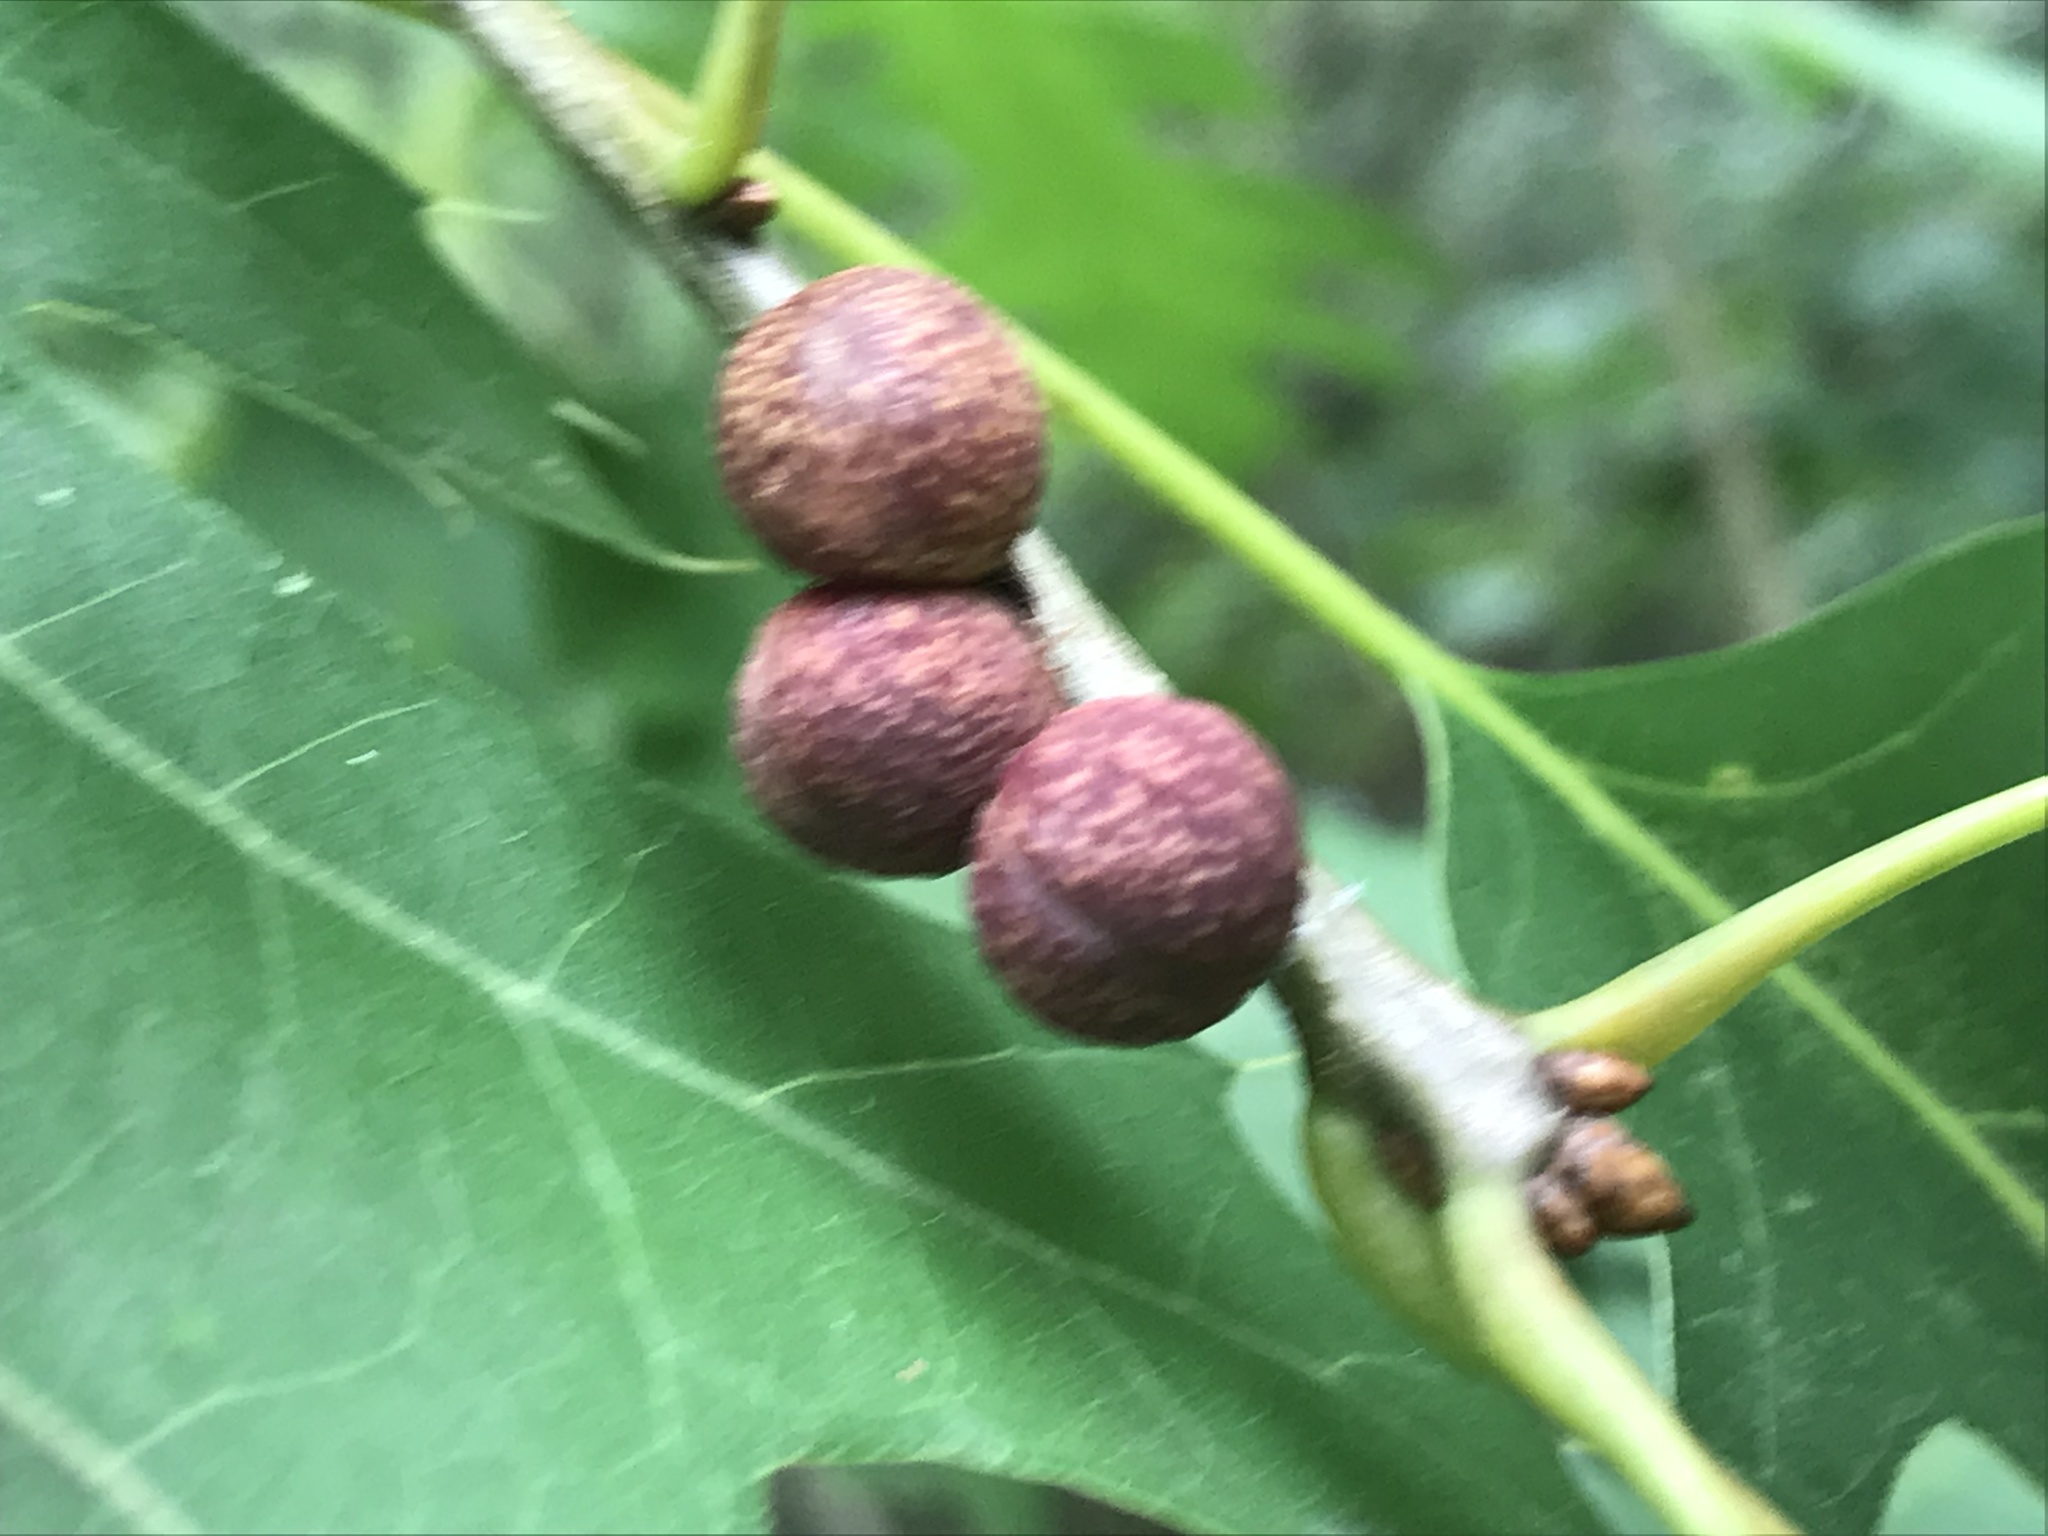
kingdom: Animalia
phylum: Arthropoda
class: Insecta
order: Hymenoptera
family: Cynipidae
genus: Kokkocynips
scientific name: Kokkocynips imbricariae
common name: Banded bullet gall wasp
